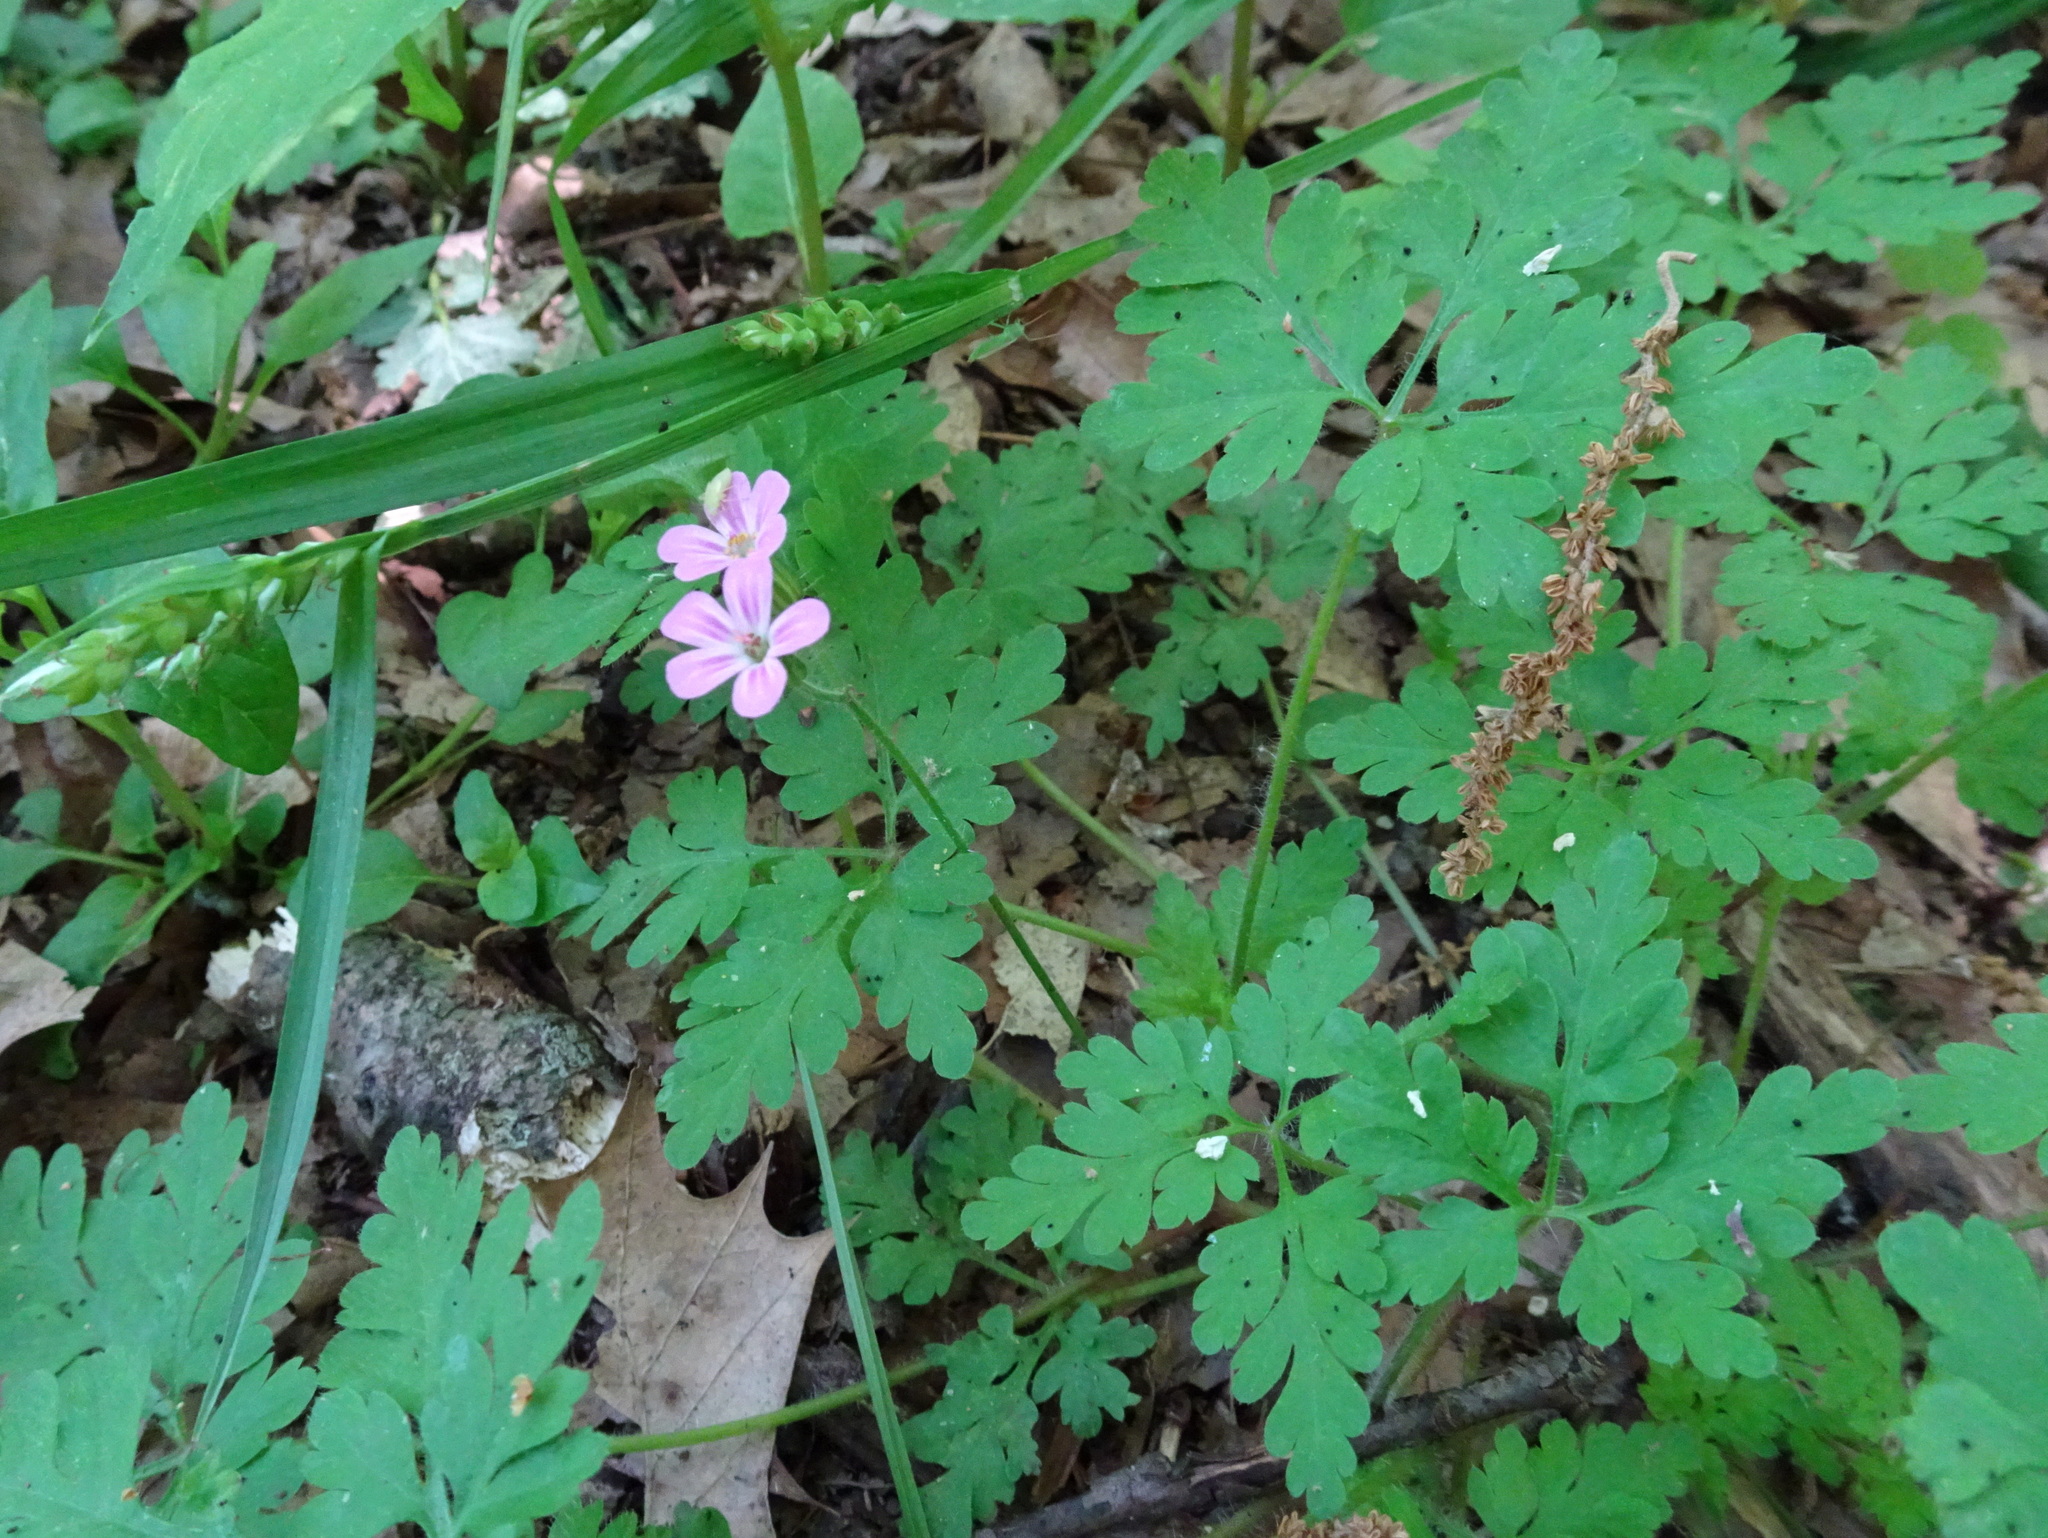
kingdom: Plantae
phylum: Tracheophyta
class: Magnoliopsida
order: Geraniales
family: Geraniaceae
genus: Geranium
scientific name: Geranium robertianum
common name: Herb-robert
